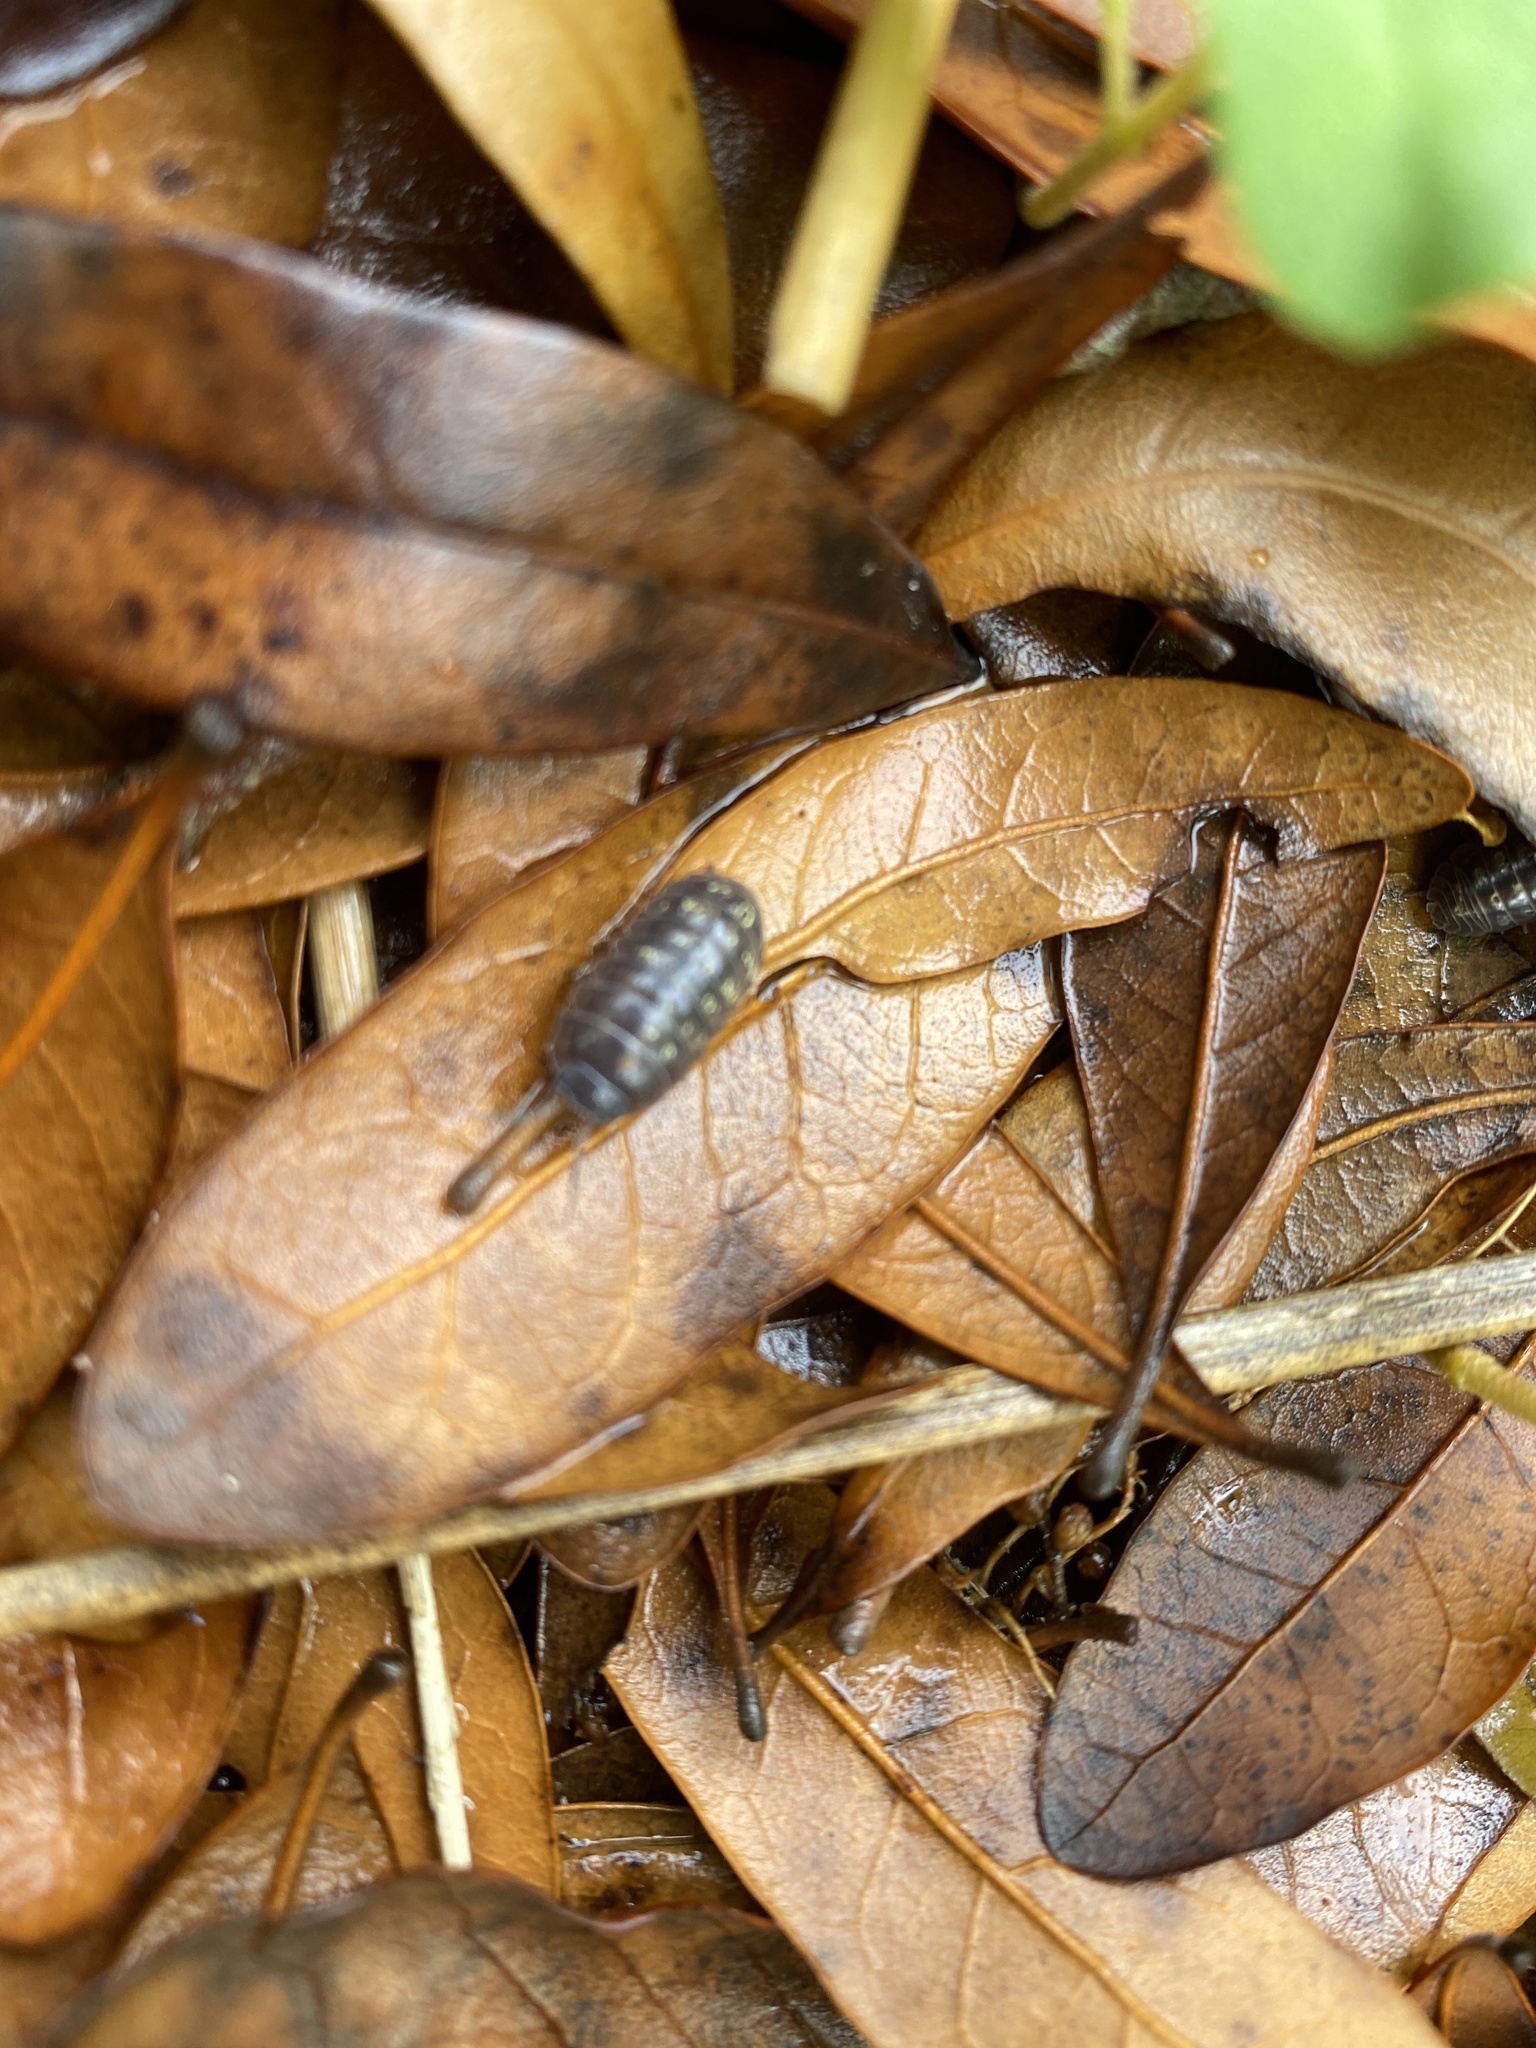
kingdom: Animalia
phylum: Arthropoda
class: Malacostraca
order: Isopoda
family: Armadillidiidae
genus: Armadillidium
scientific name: Armadillidium vulgare
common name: Common pill woodlouse
